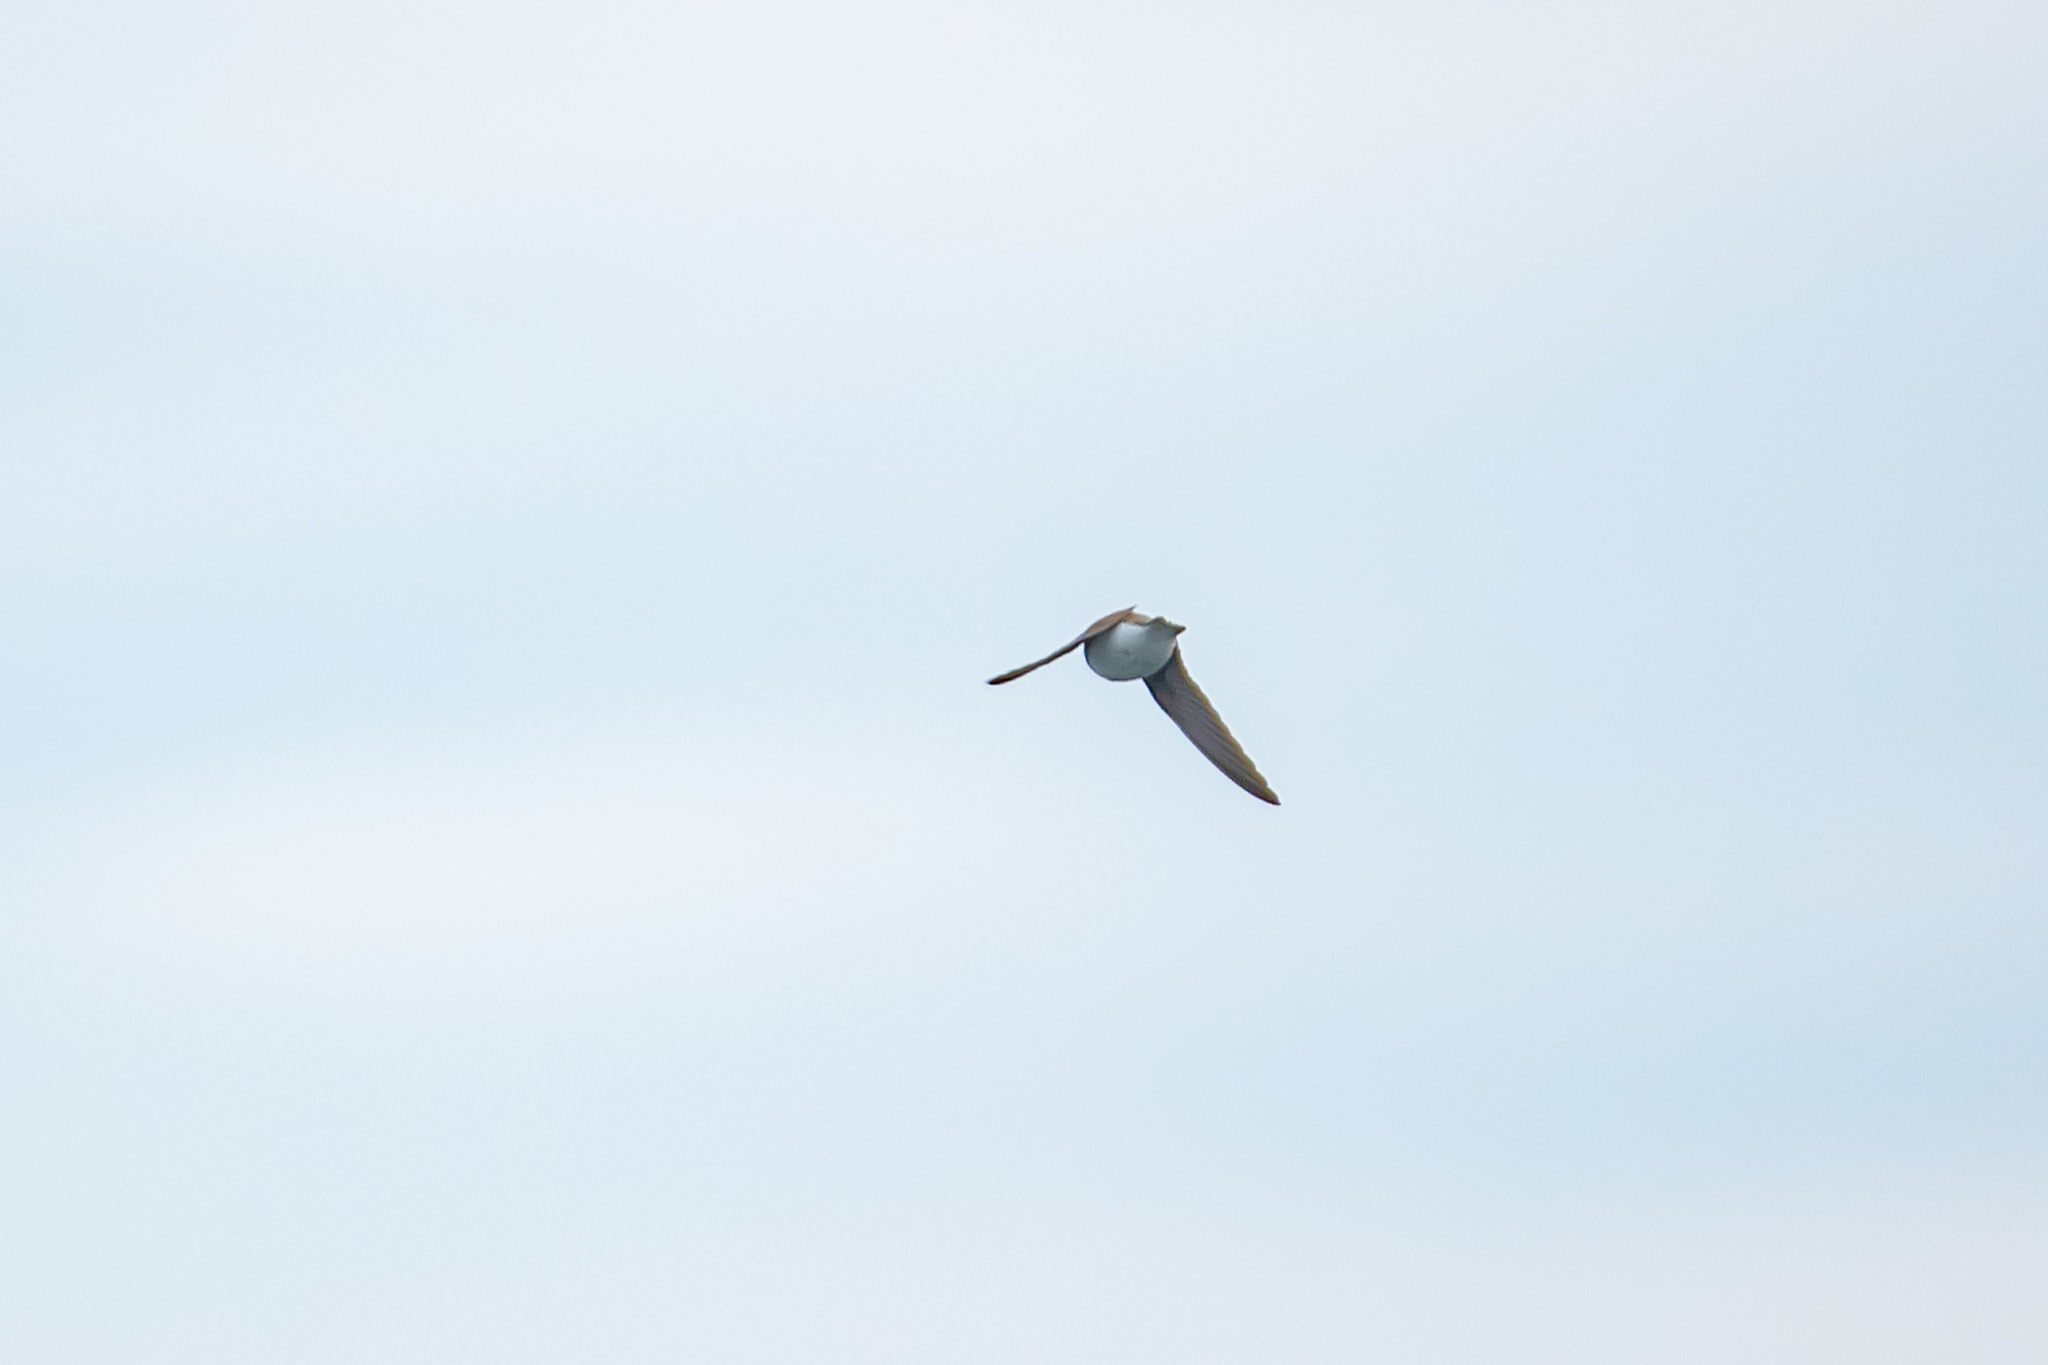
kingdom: Animalia
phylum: Chordata
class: Aves
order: Passeriformes
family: Hirundinidae
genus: Riparia
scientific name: Riparia riparia
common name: Sand martin
